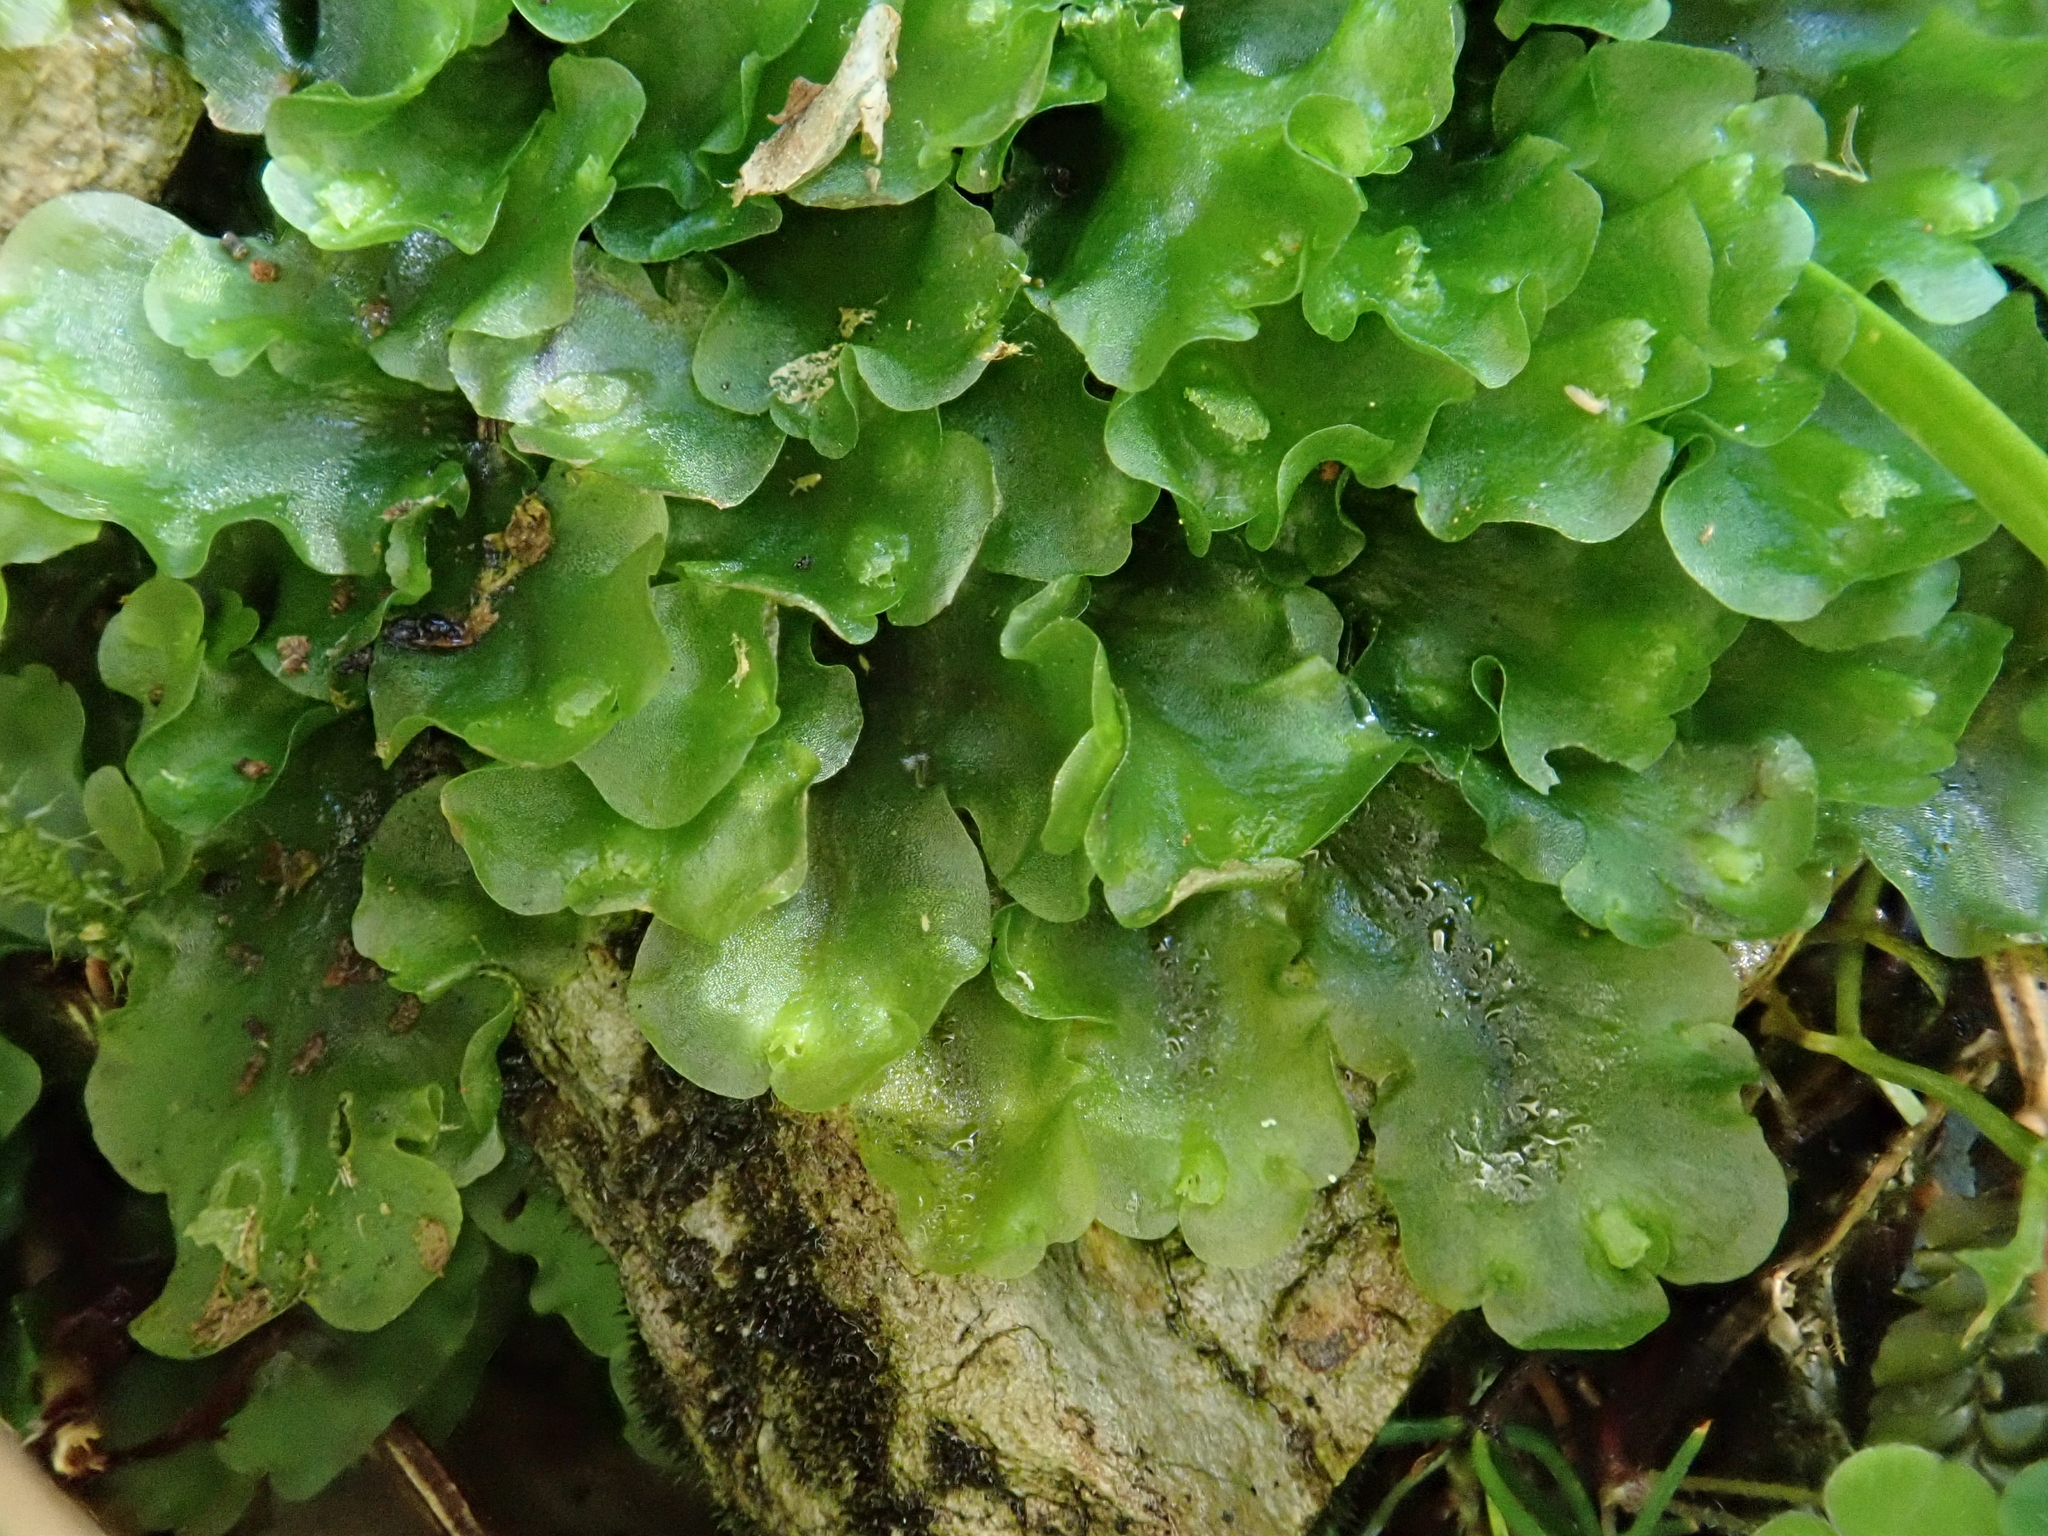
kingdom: Plantae
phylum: Marchantiophyta
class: Jungermanniopsida
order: Pelliales
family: Pelliaceae
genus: Pellia
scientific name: Pellia neesiana
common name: Nees  pellia
